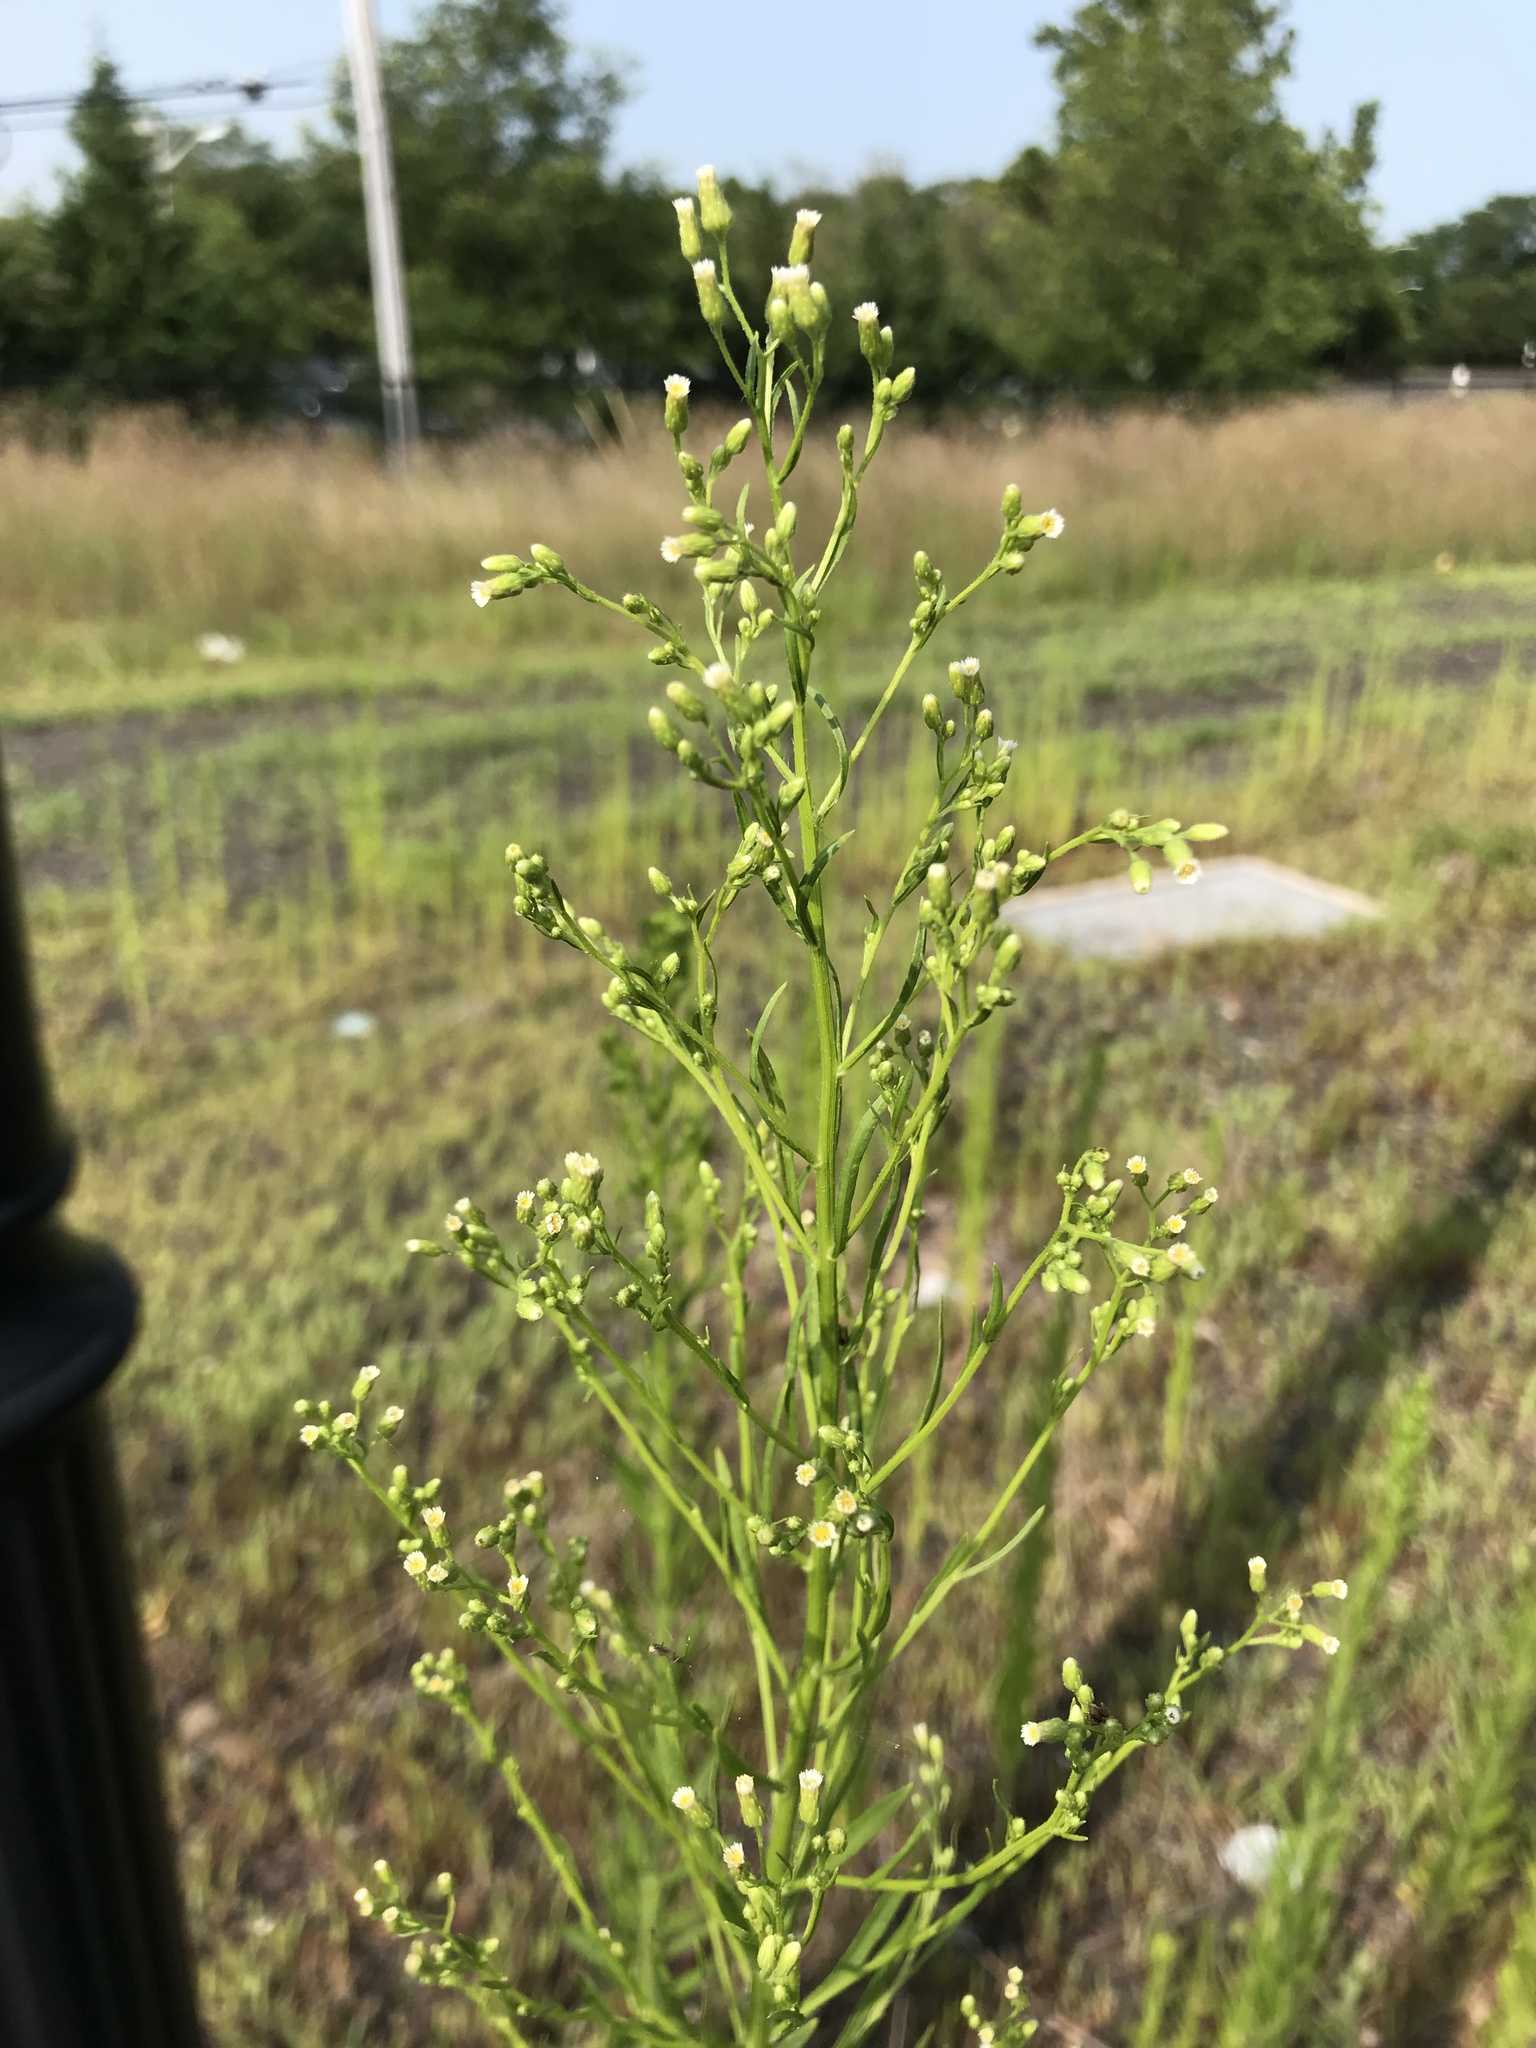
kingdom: Plantae
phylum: Tracheophyta
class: Magnoliopsida
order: Asterales
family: Asteraceae
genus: Erigeron
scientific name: Erigeron canadensis
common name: Canadian fleabane
